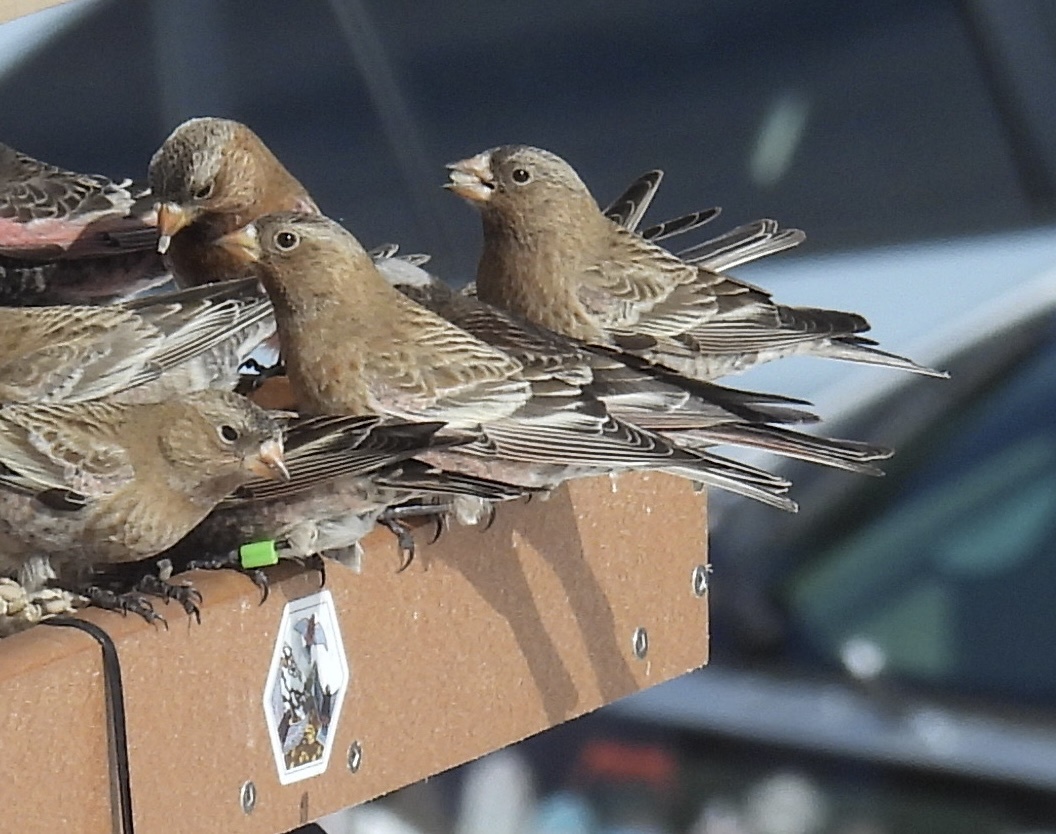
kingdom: Animalia
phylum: Chordata
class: Aves
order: Passeriformes
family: Fringillidae
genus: Leucosticte
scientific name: Leucosticte australis
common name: Brown-capped rosy-finch
